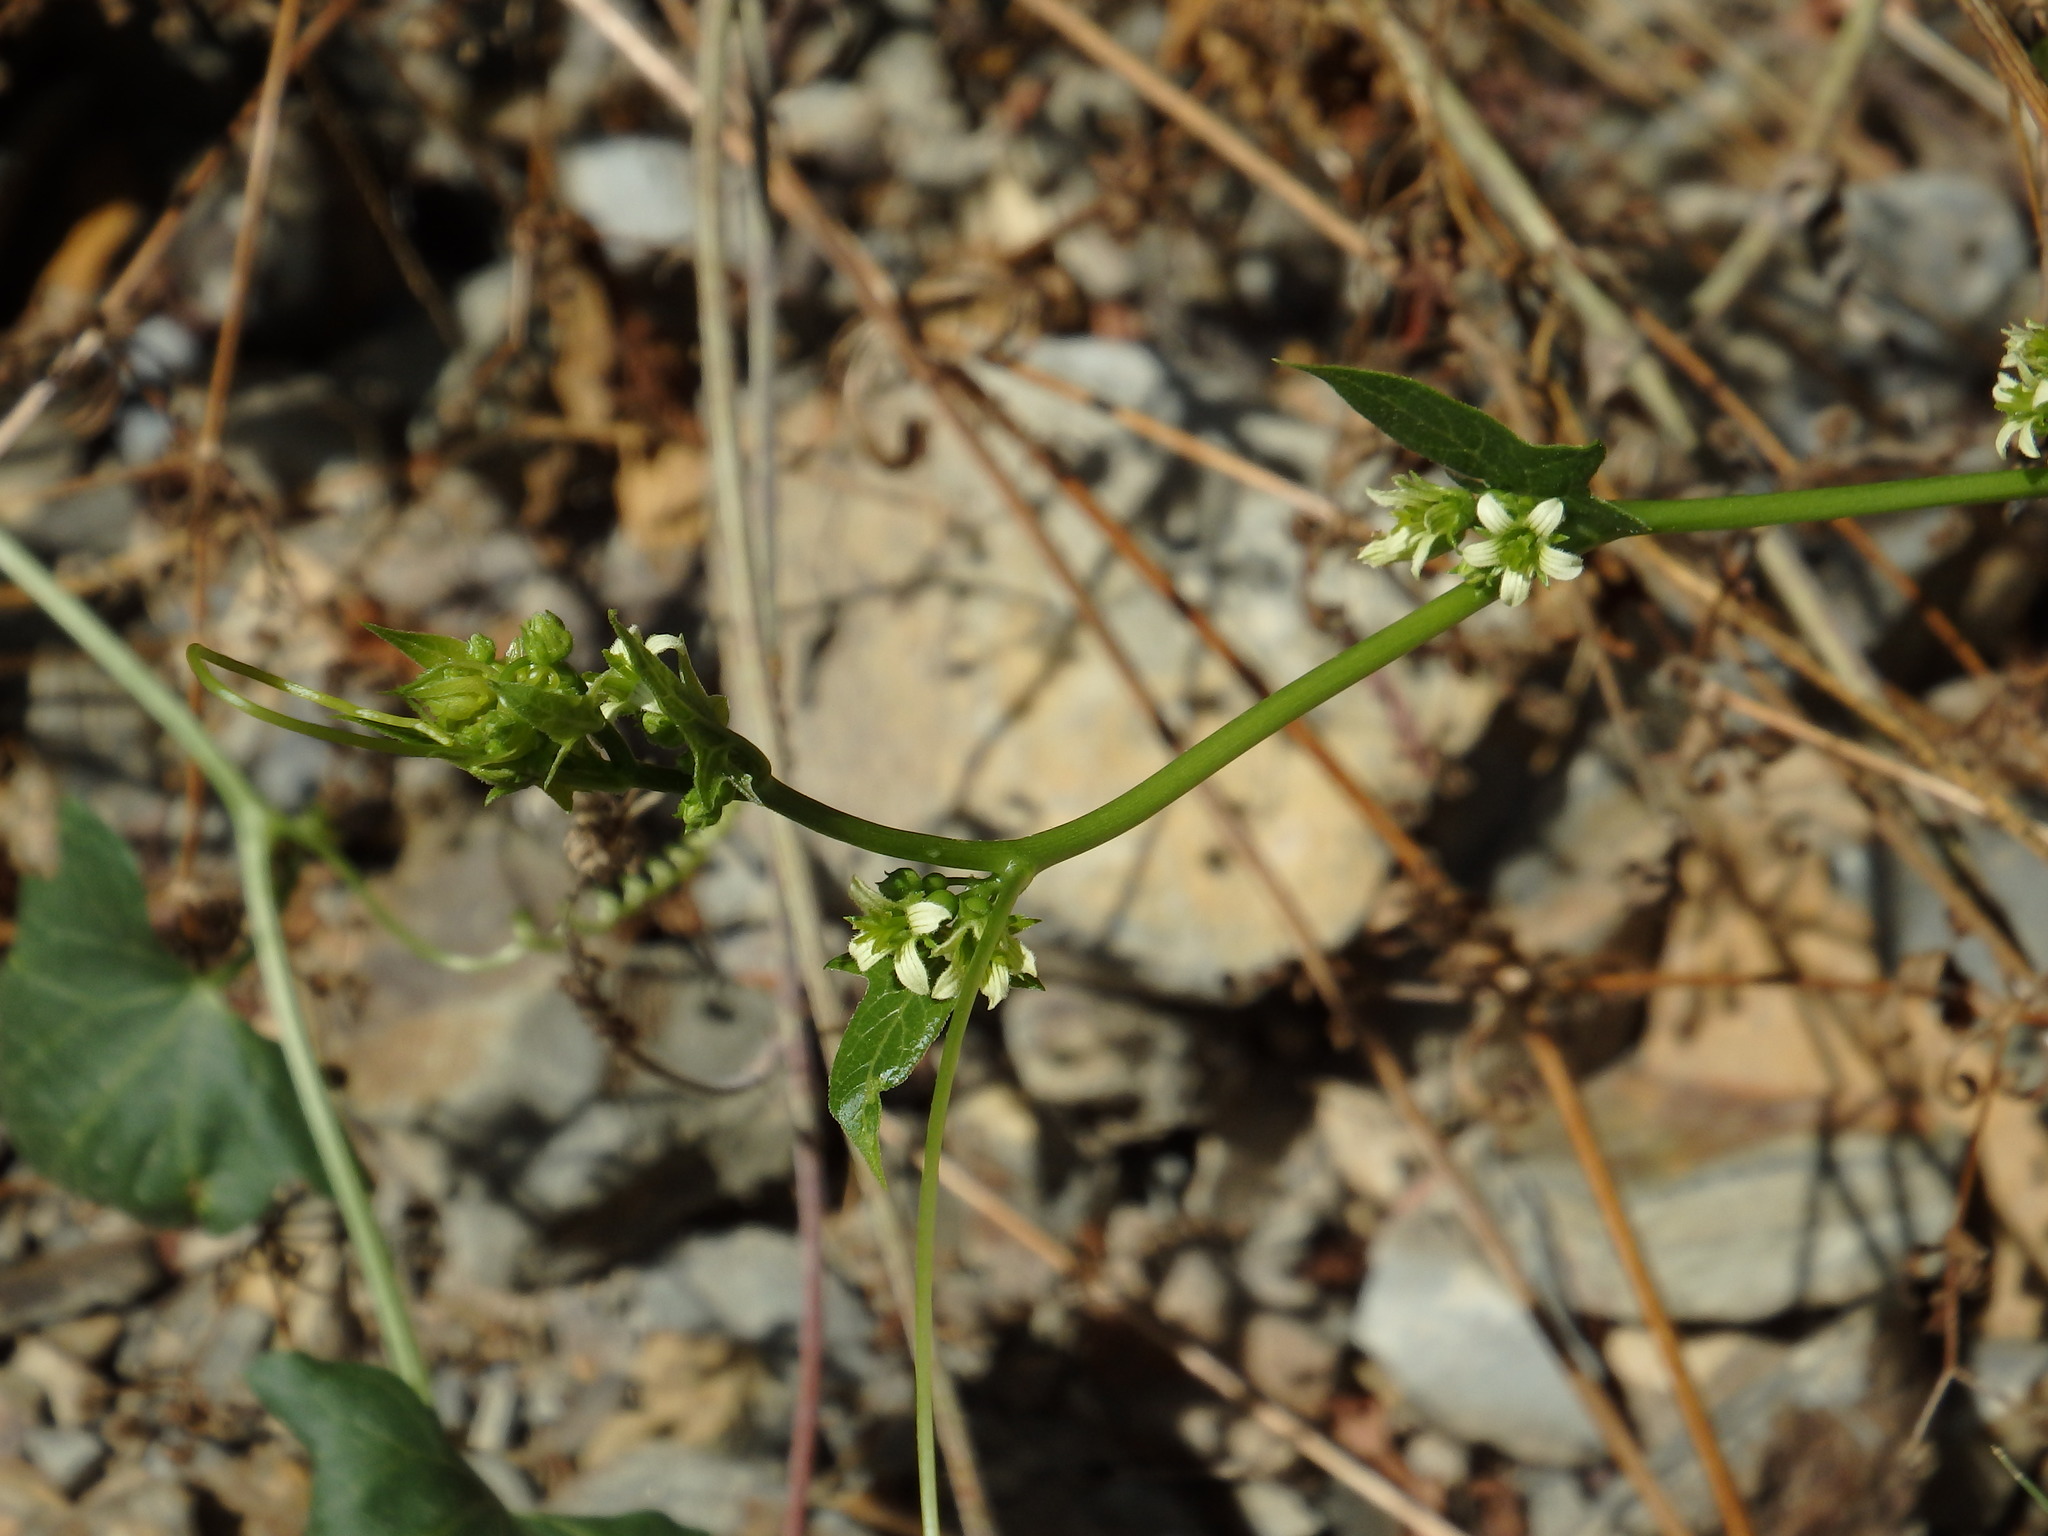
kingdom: Plantae
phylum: Tracheophyta
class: Magnoliopsida
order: Cucurbitales
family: Cucurbitaceae
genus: Bryonia
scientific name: Bryonia dioica
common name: White bryony
